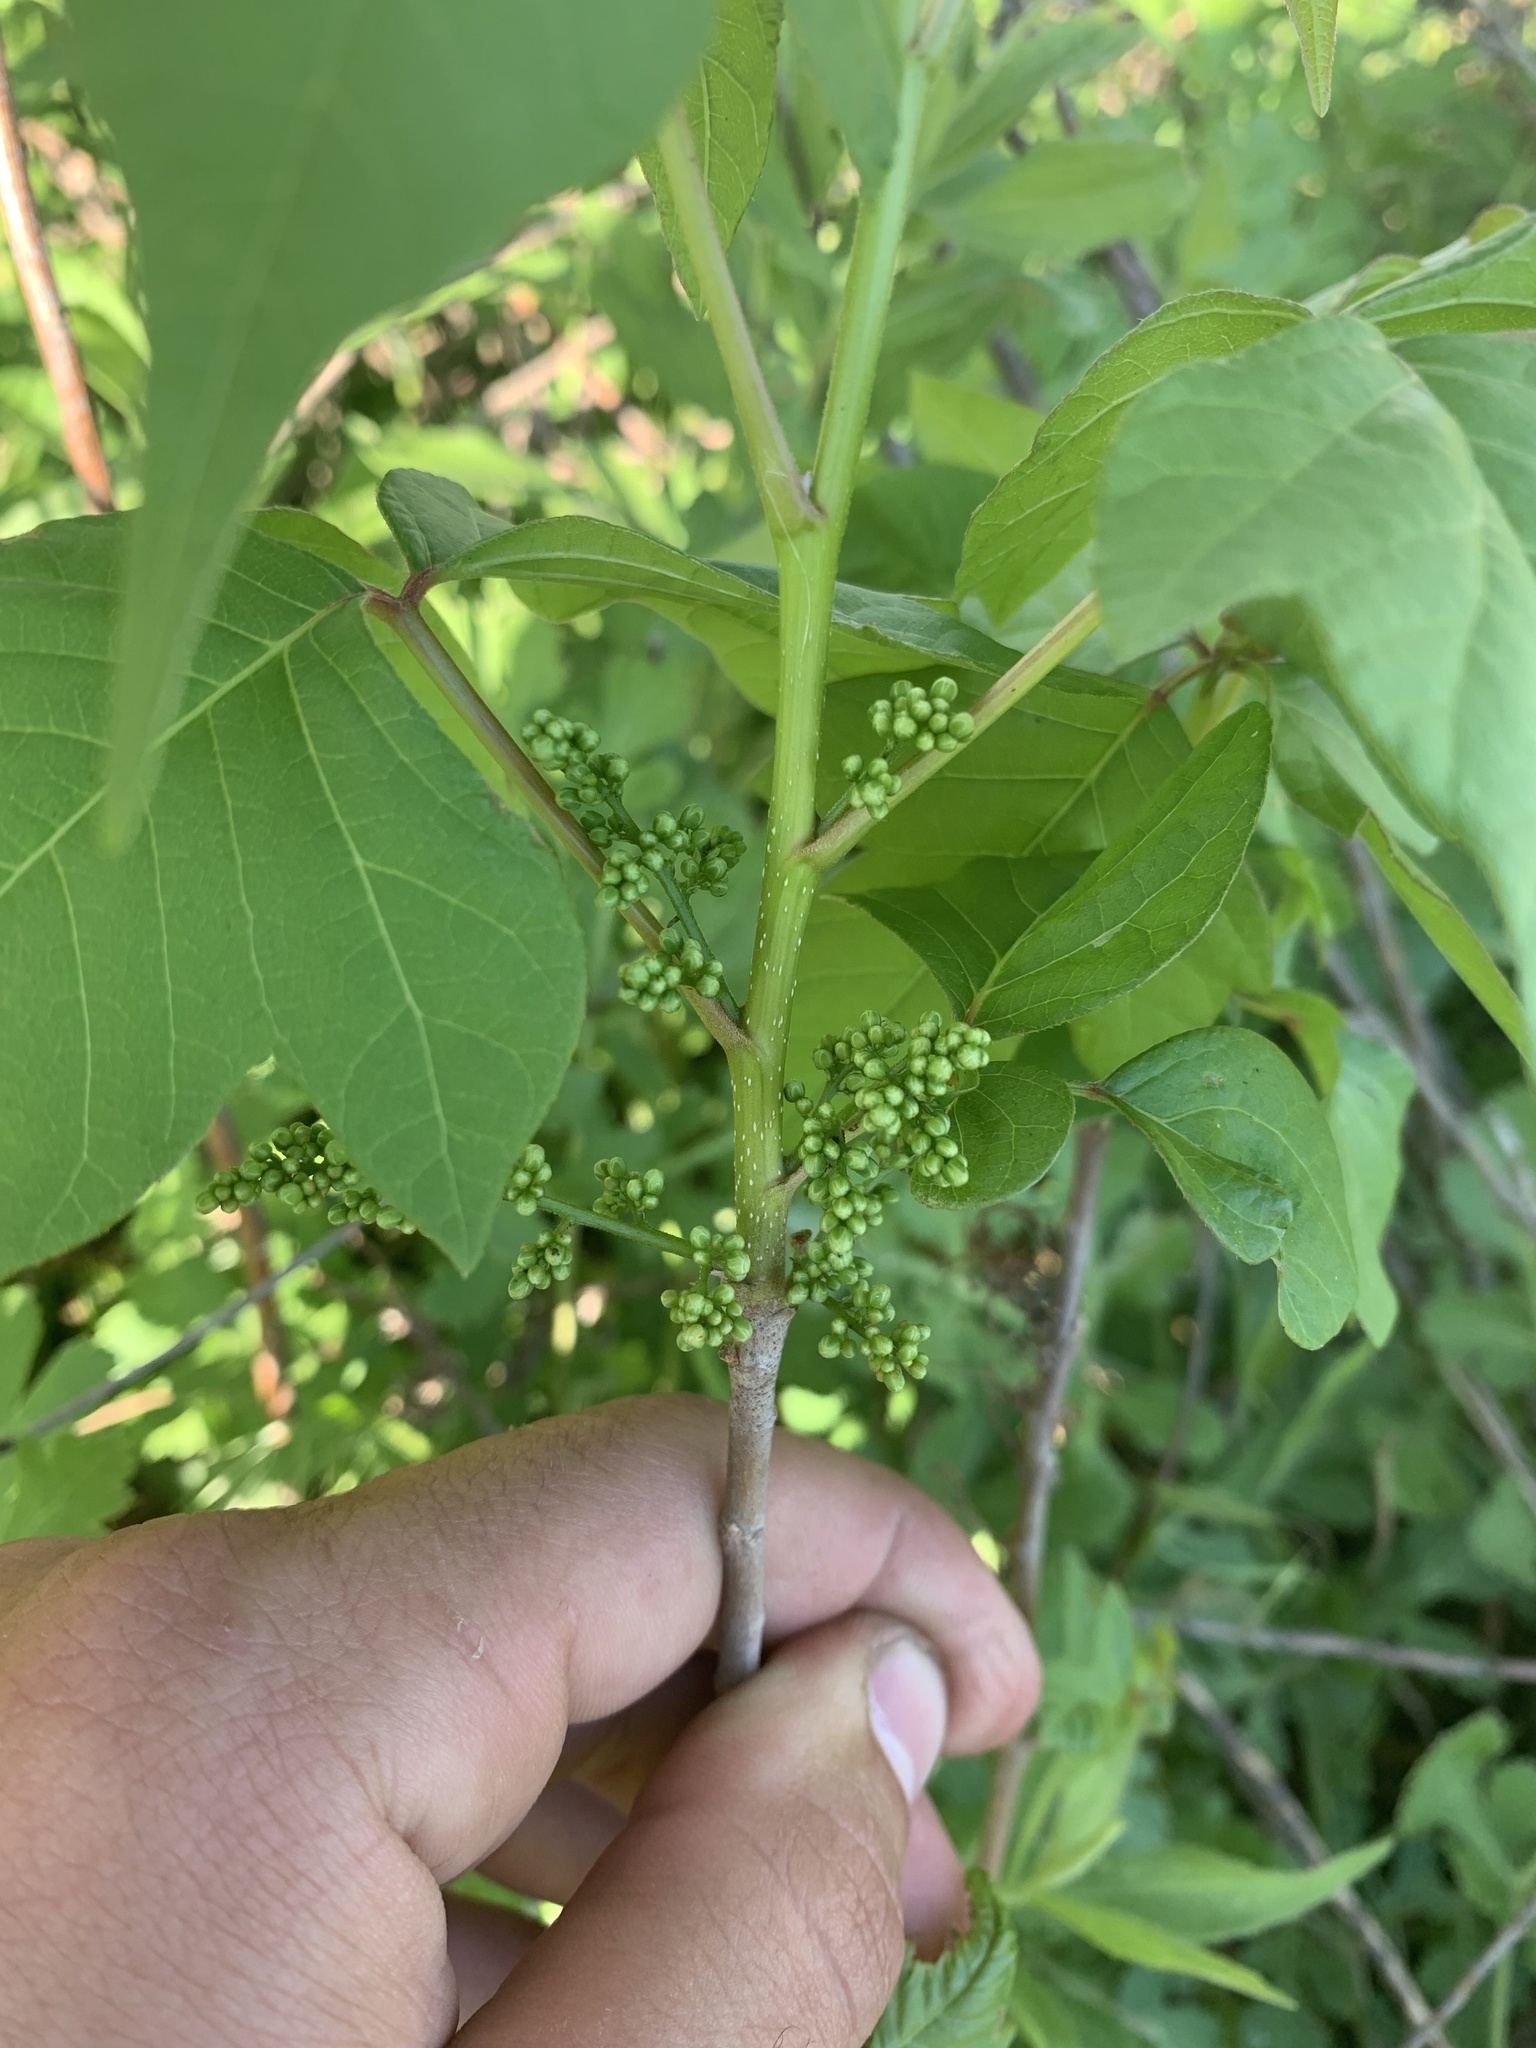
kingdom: Plantae
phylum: Tracheophyta
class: Magnoliopsida
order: Sapindales
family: Anacardiaceae
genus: Toxicodendron
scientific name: Toxicodendron radicans
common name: Poison ivy
